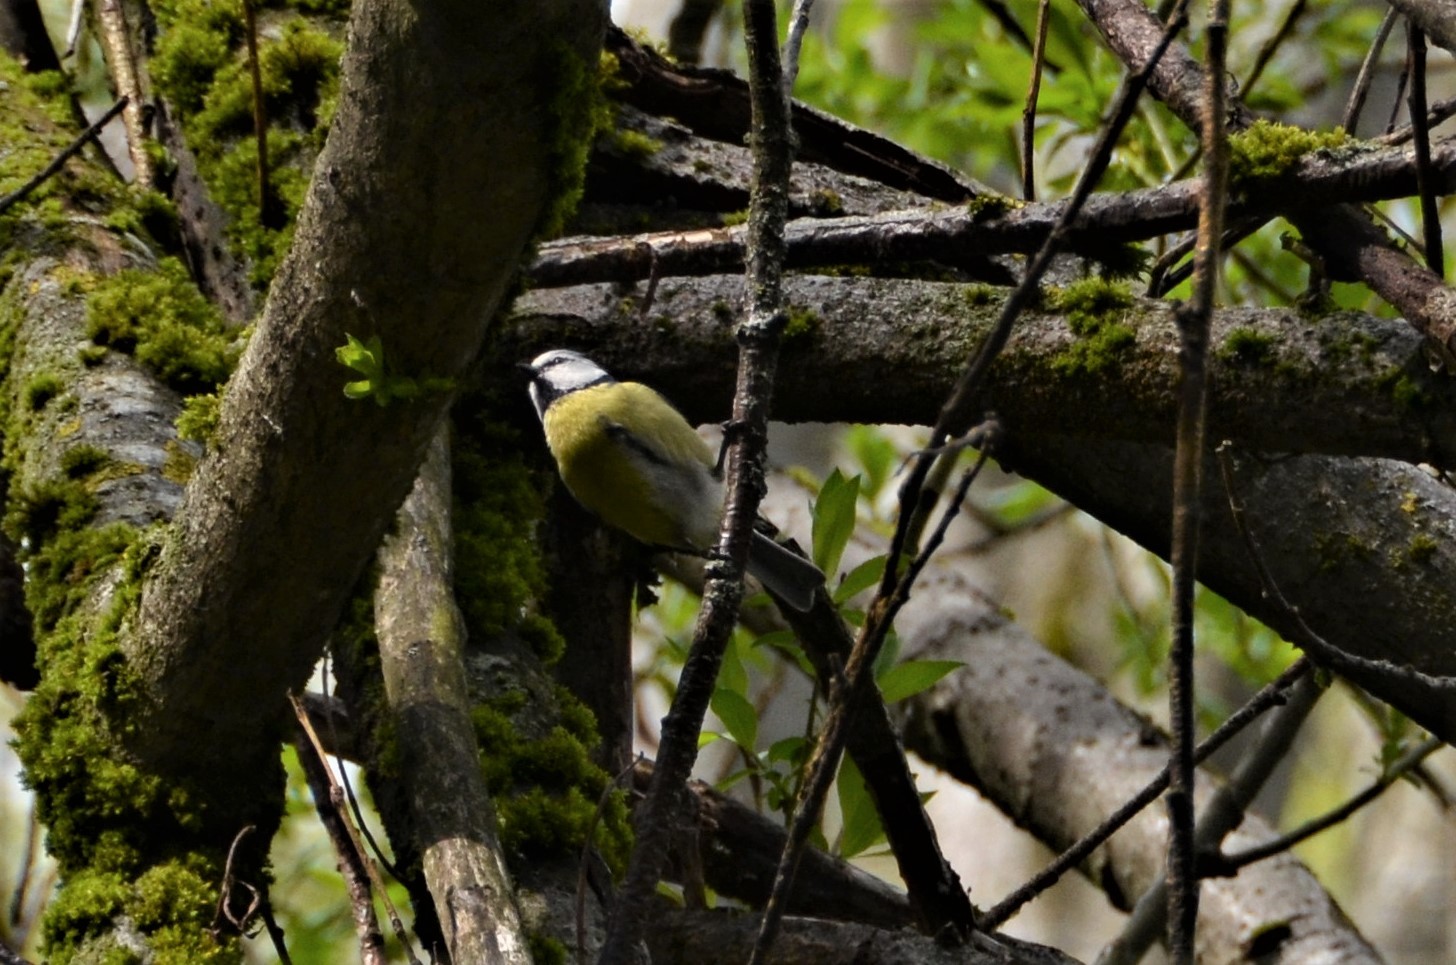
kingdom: Animalia
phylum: Chordata
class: Aves
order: Passeriformes
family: Paridae
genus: Cyanistes
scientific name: Cyanistes caeruleus
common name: Eurasian blue tit
